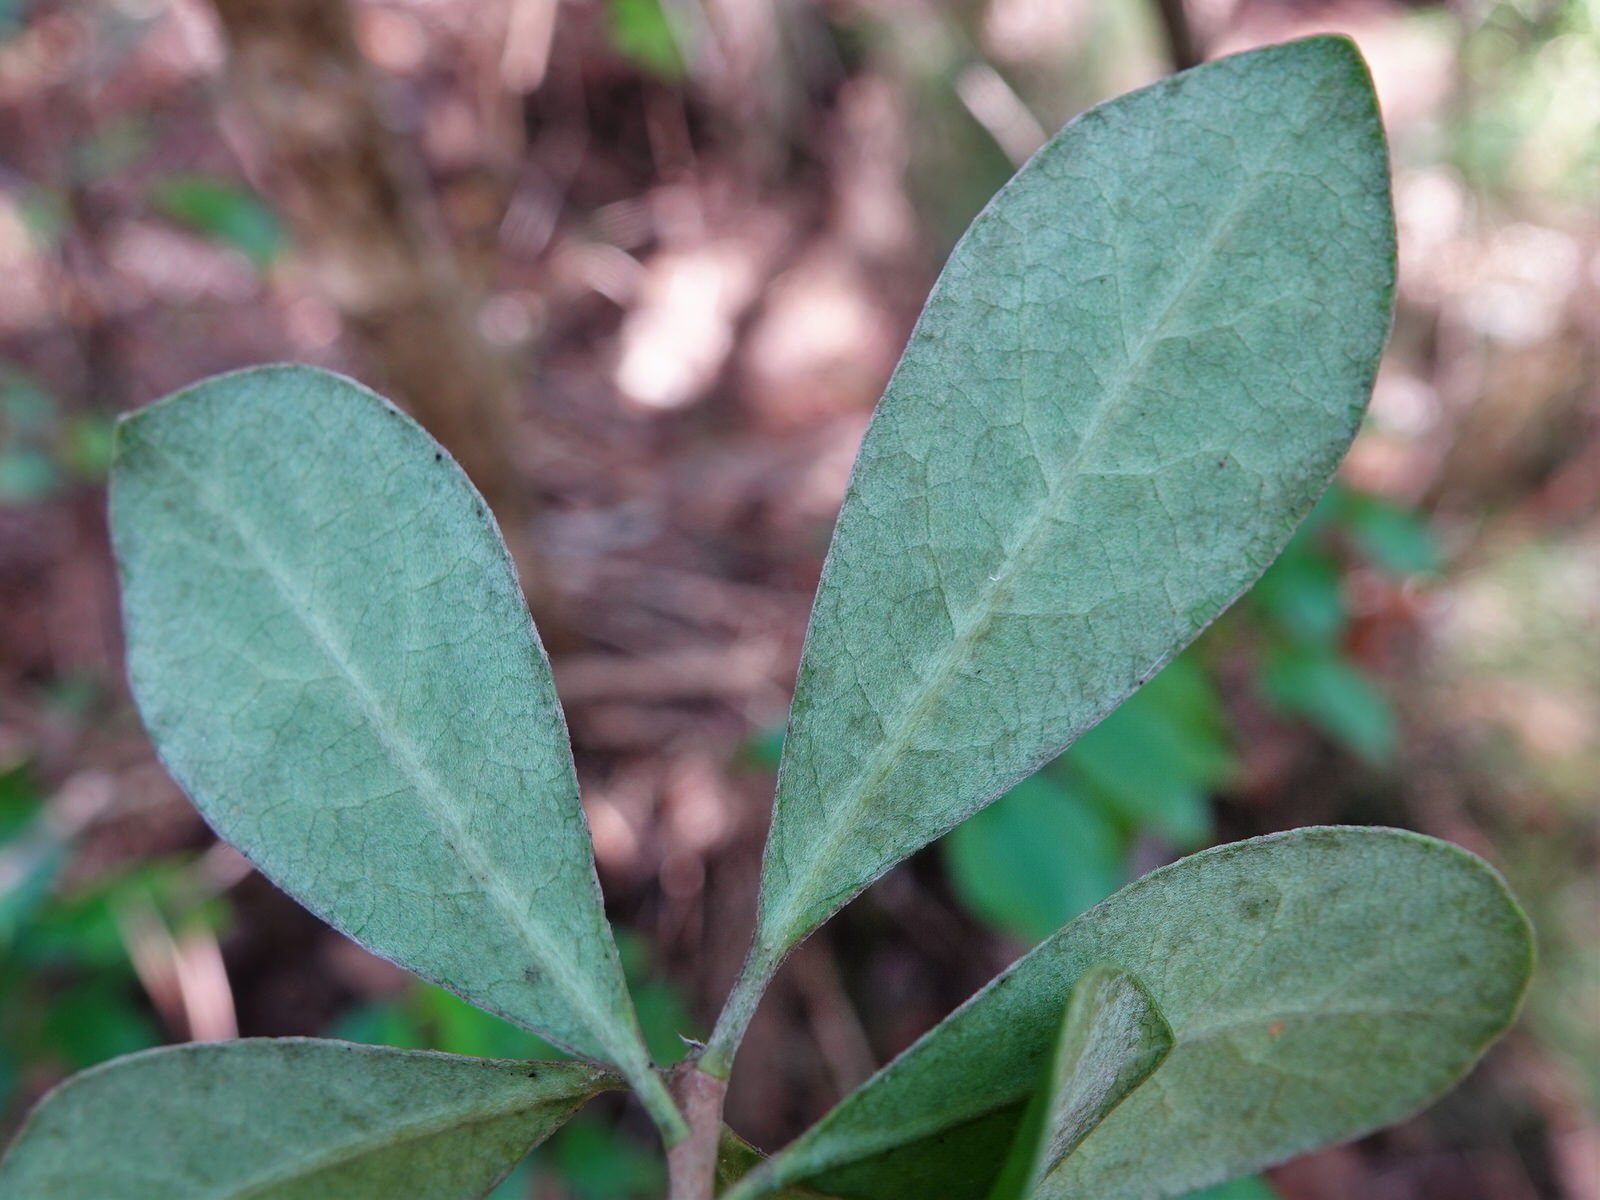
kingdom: Plantae
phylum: Tracheophyta
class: Magnoliopsida
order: Apiales
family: Pittosporaceae
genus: Pittosporum
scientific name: Pittosporum crassifolium
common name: Karo
